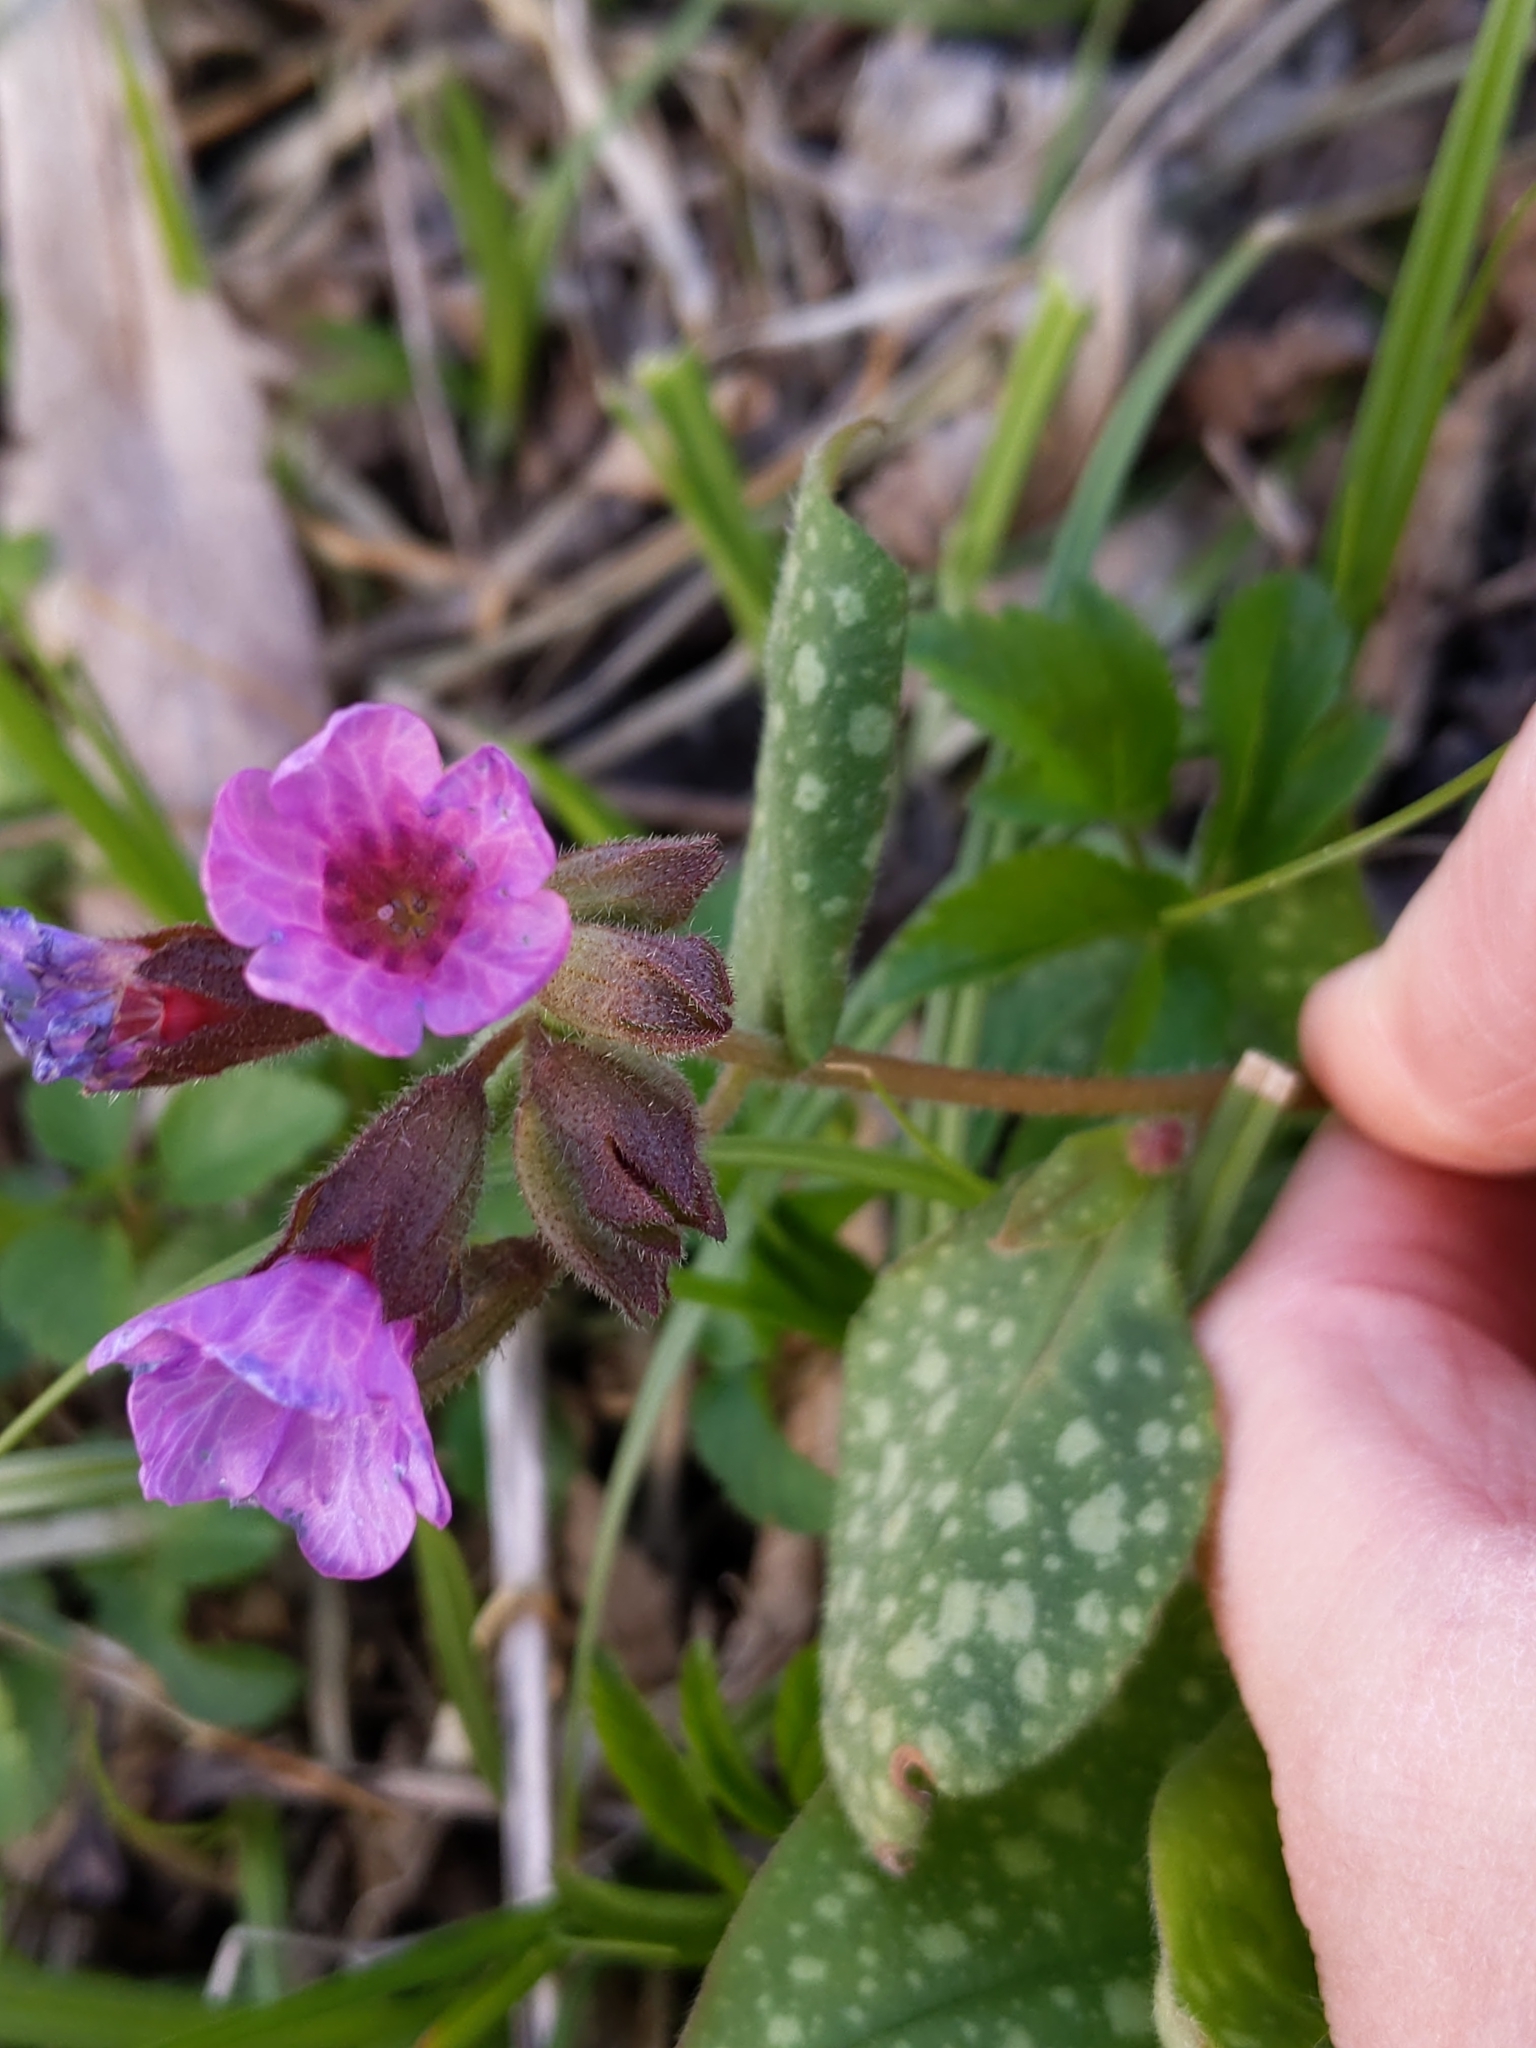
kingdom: Plantae
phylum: Tracheophyta
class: Magnoliopsida
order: Boraginales
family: Boraginaceae
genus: Pulmonaria
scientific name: Pulmonaria officinalis
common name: Lungwort
